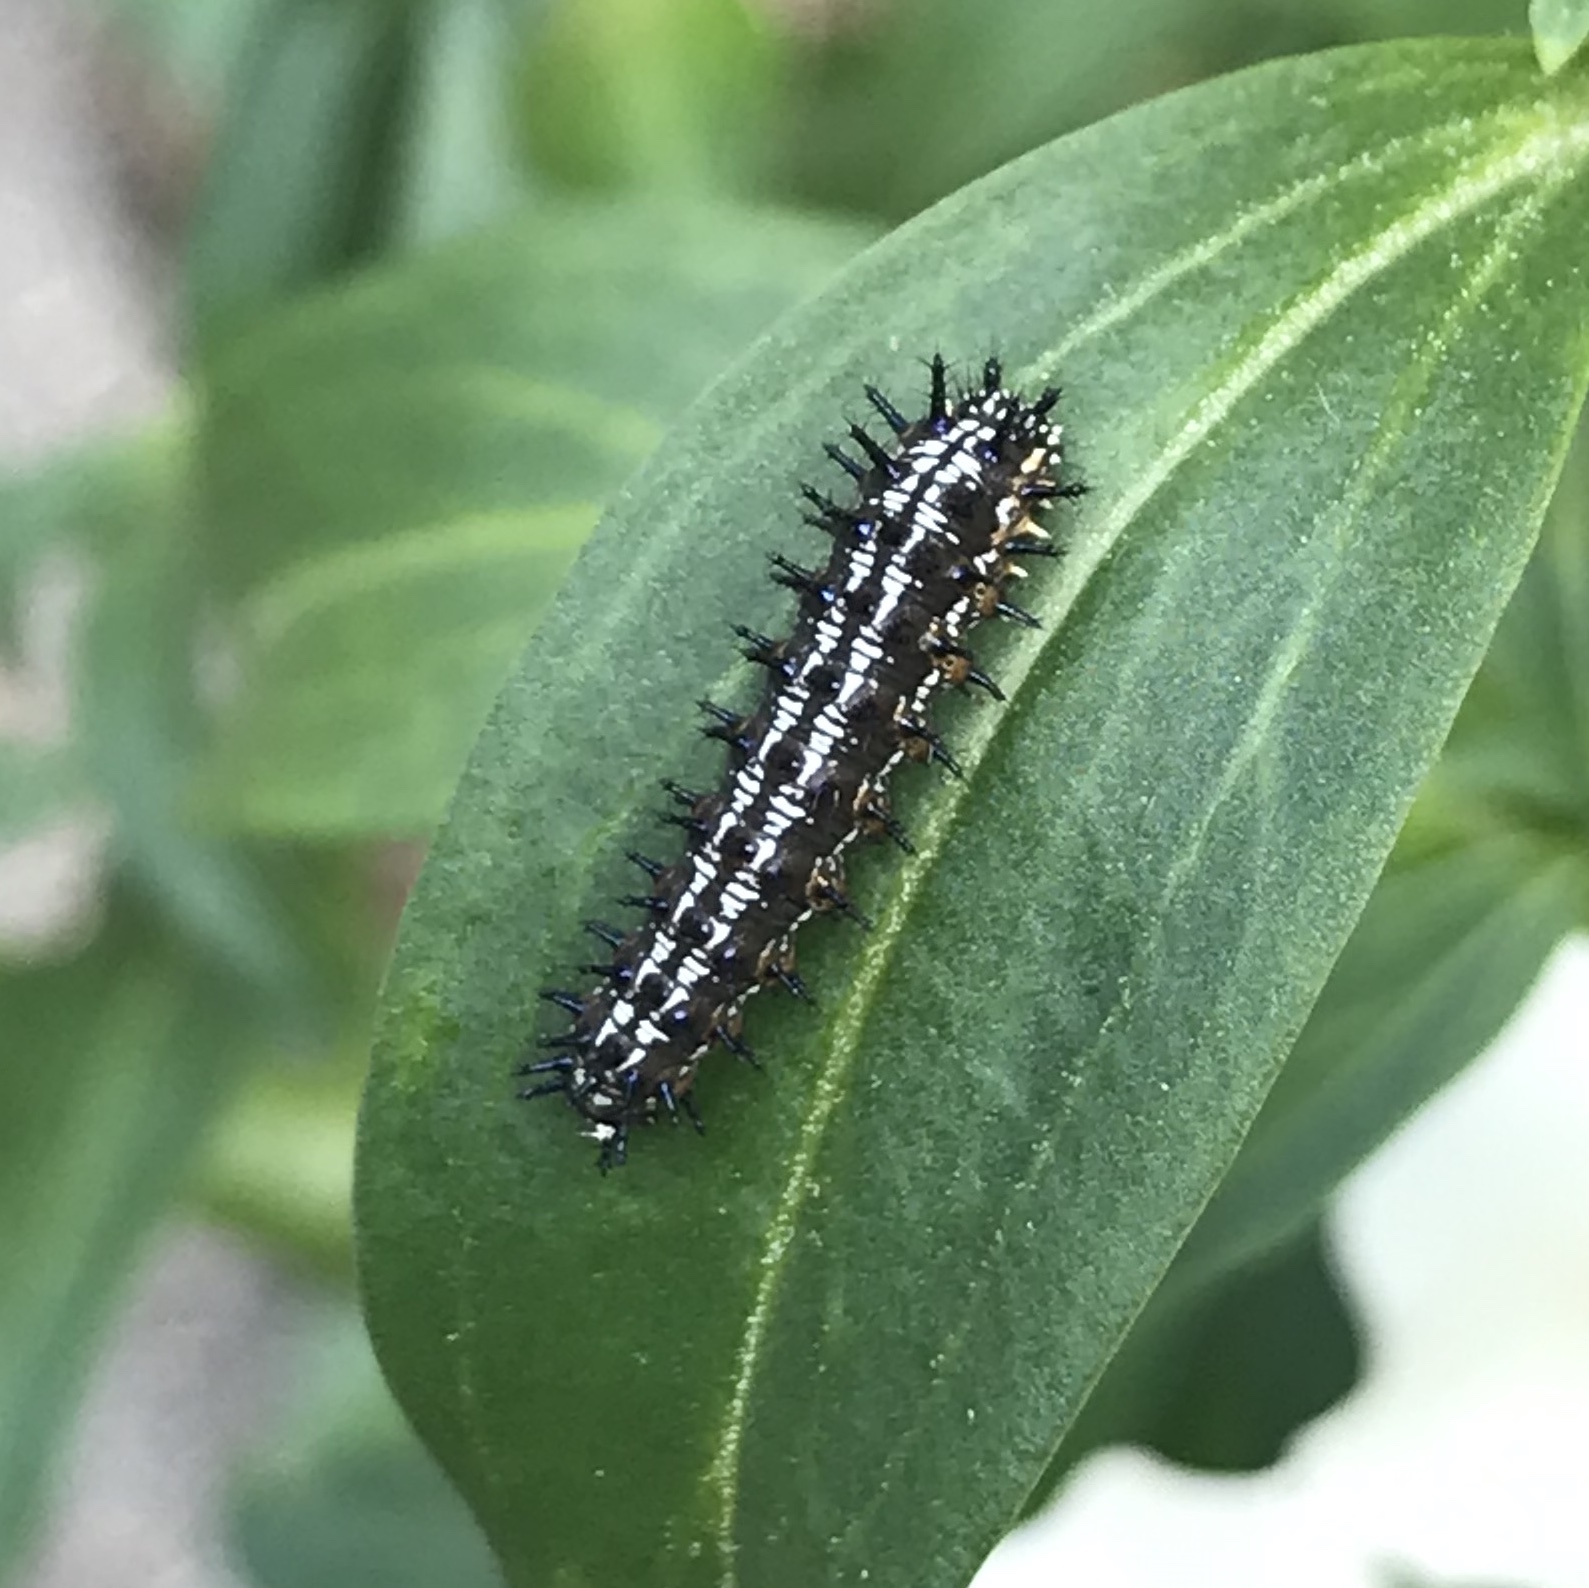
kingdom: Animalia
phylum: Arthropoda
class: Insecta
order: Lepidoptera
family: Nymphalidae
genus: Junonia
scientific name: Junonia coenia
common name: Common buckeye
